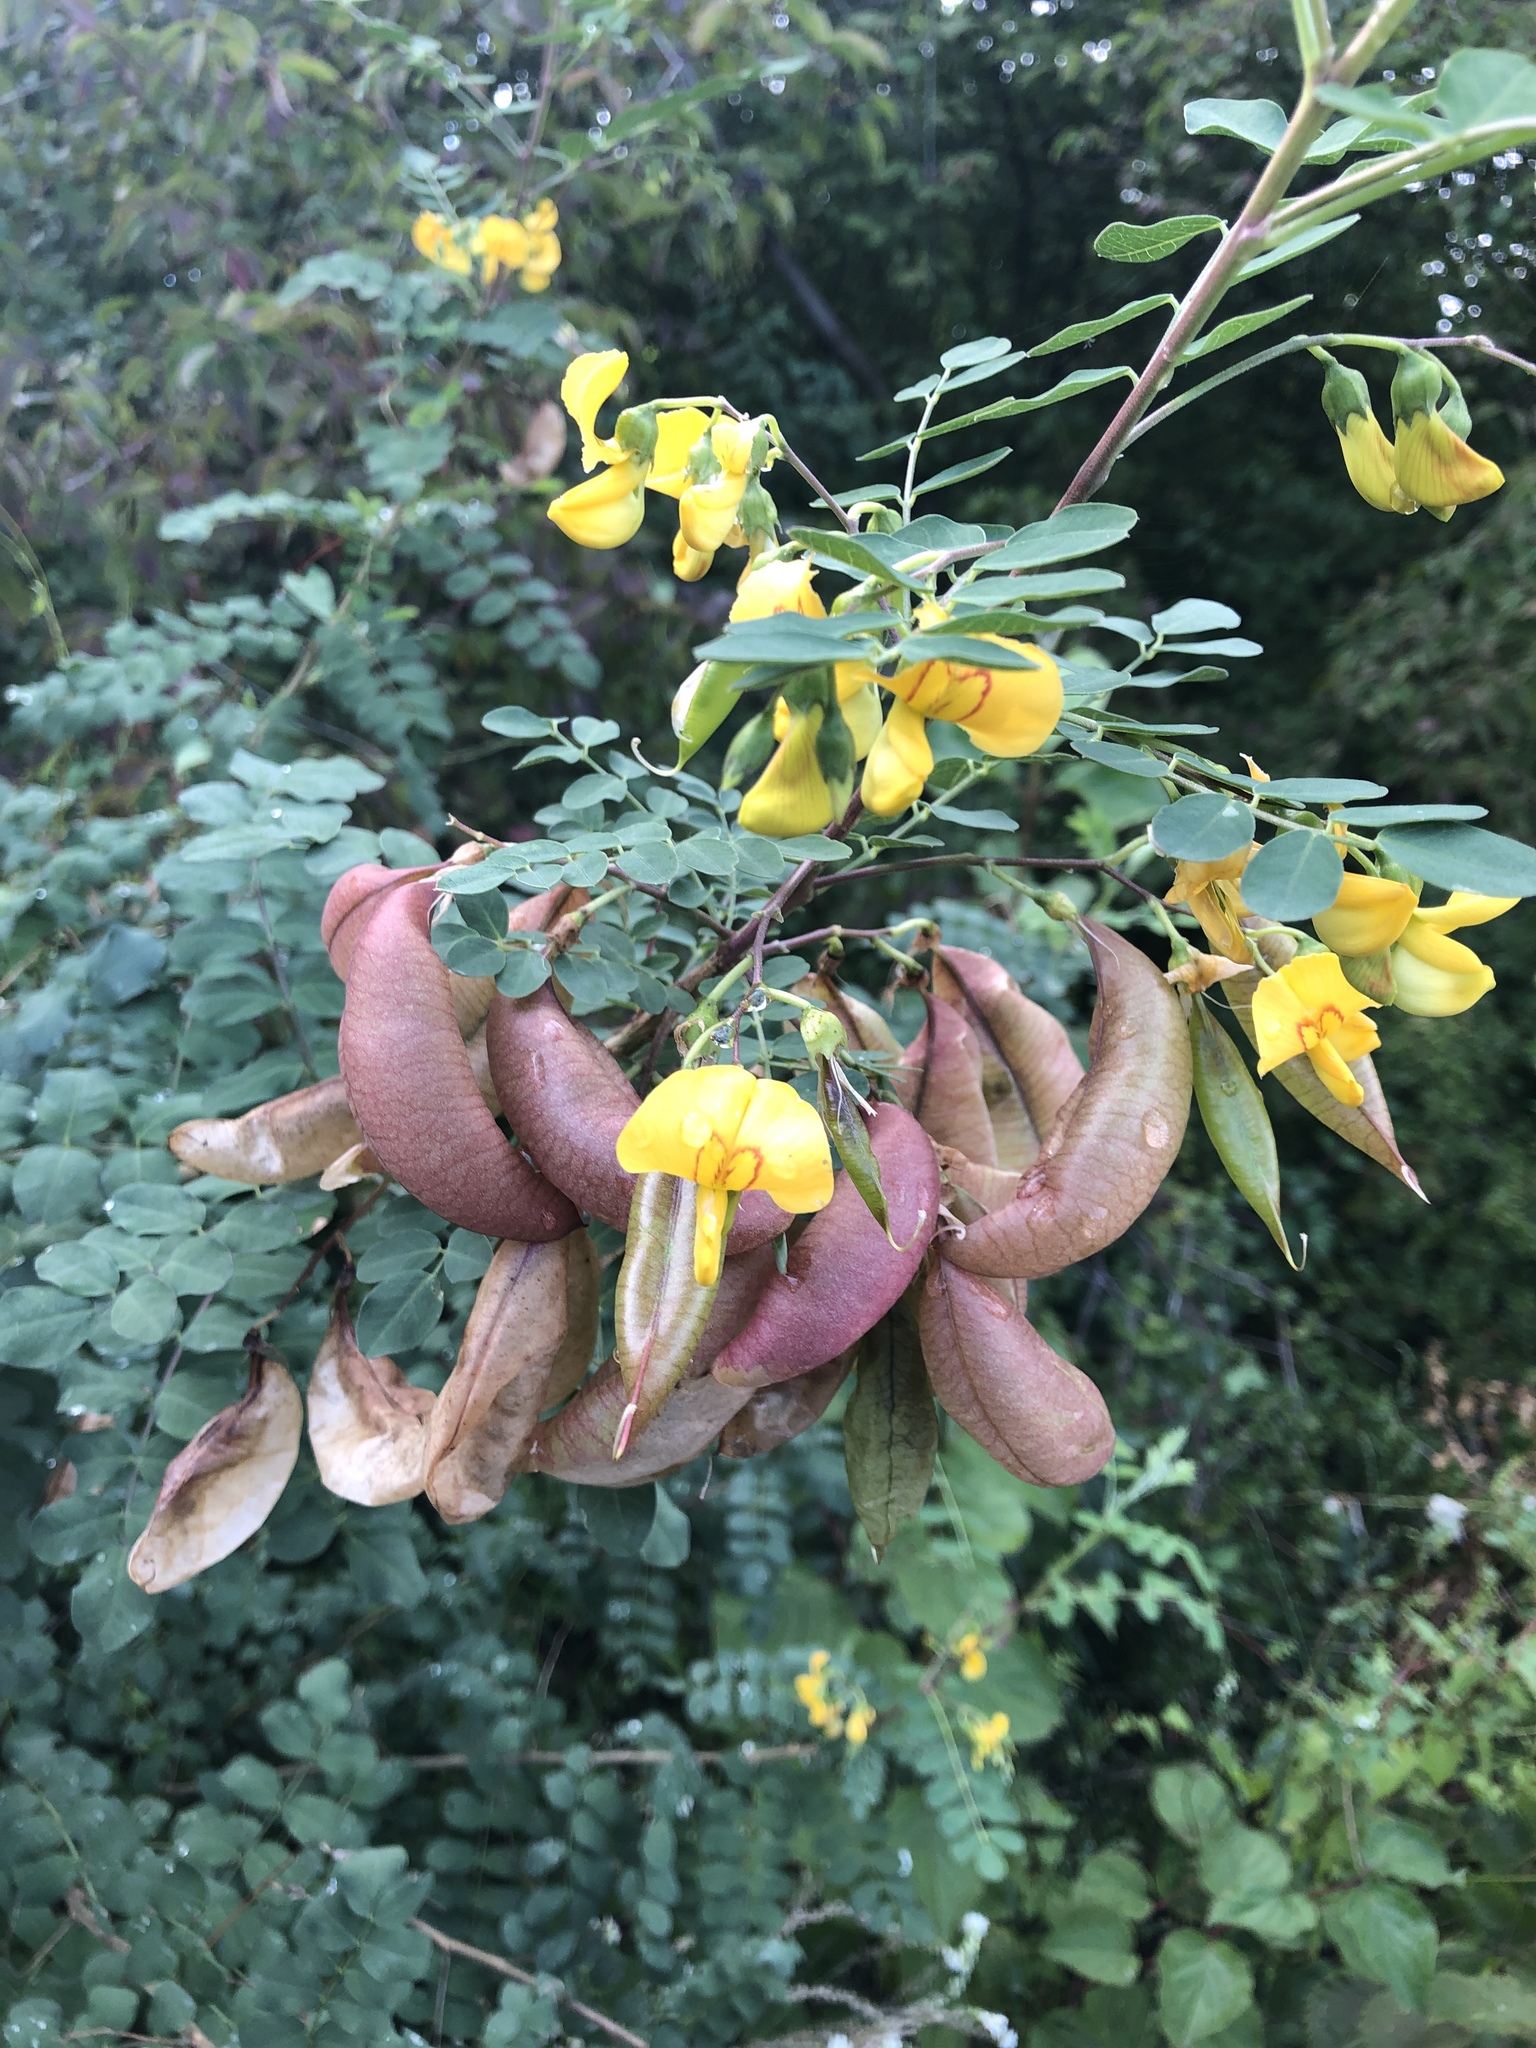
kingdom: Plantae
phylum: Tracheophyta
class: Magnoliopsida
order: Fabales
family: Fabaceae
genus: Colutea
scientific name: Colutea arborescens
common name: Bladder-senna
